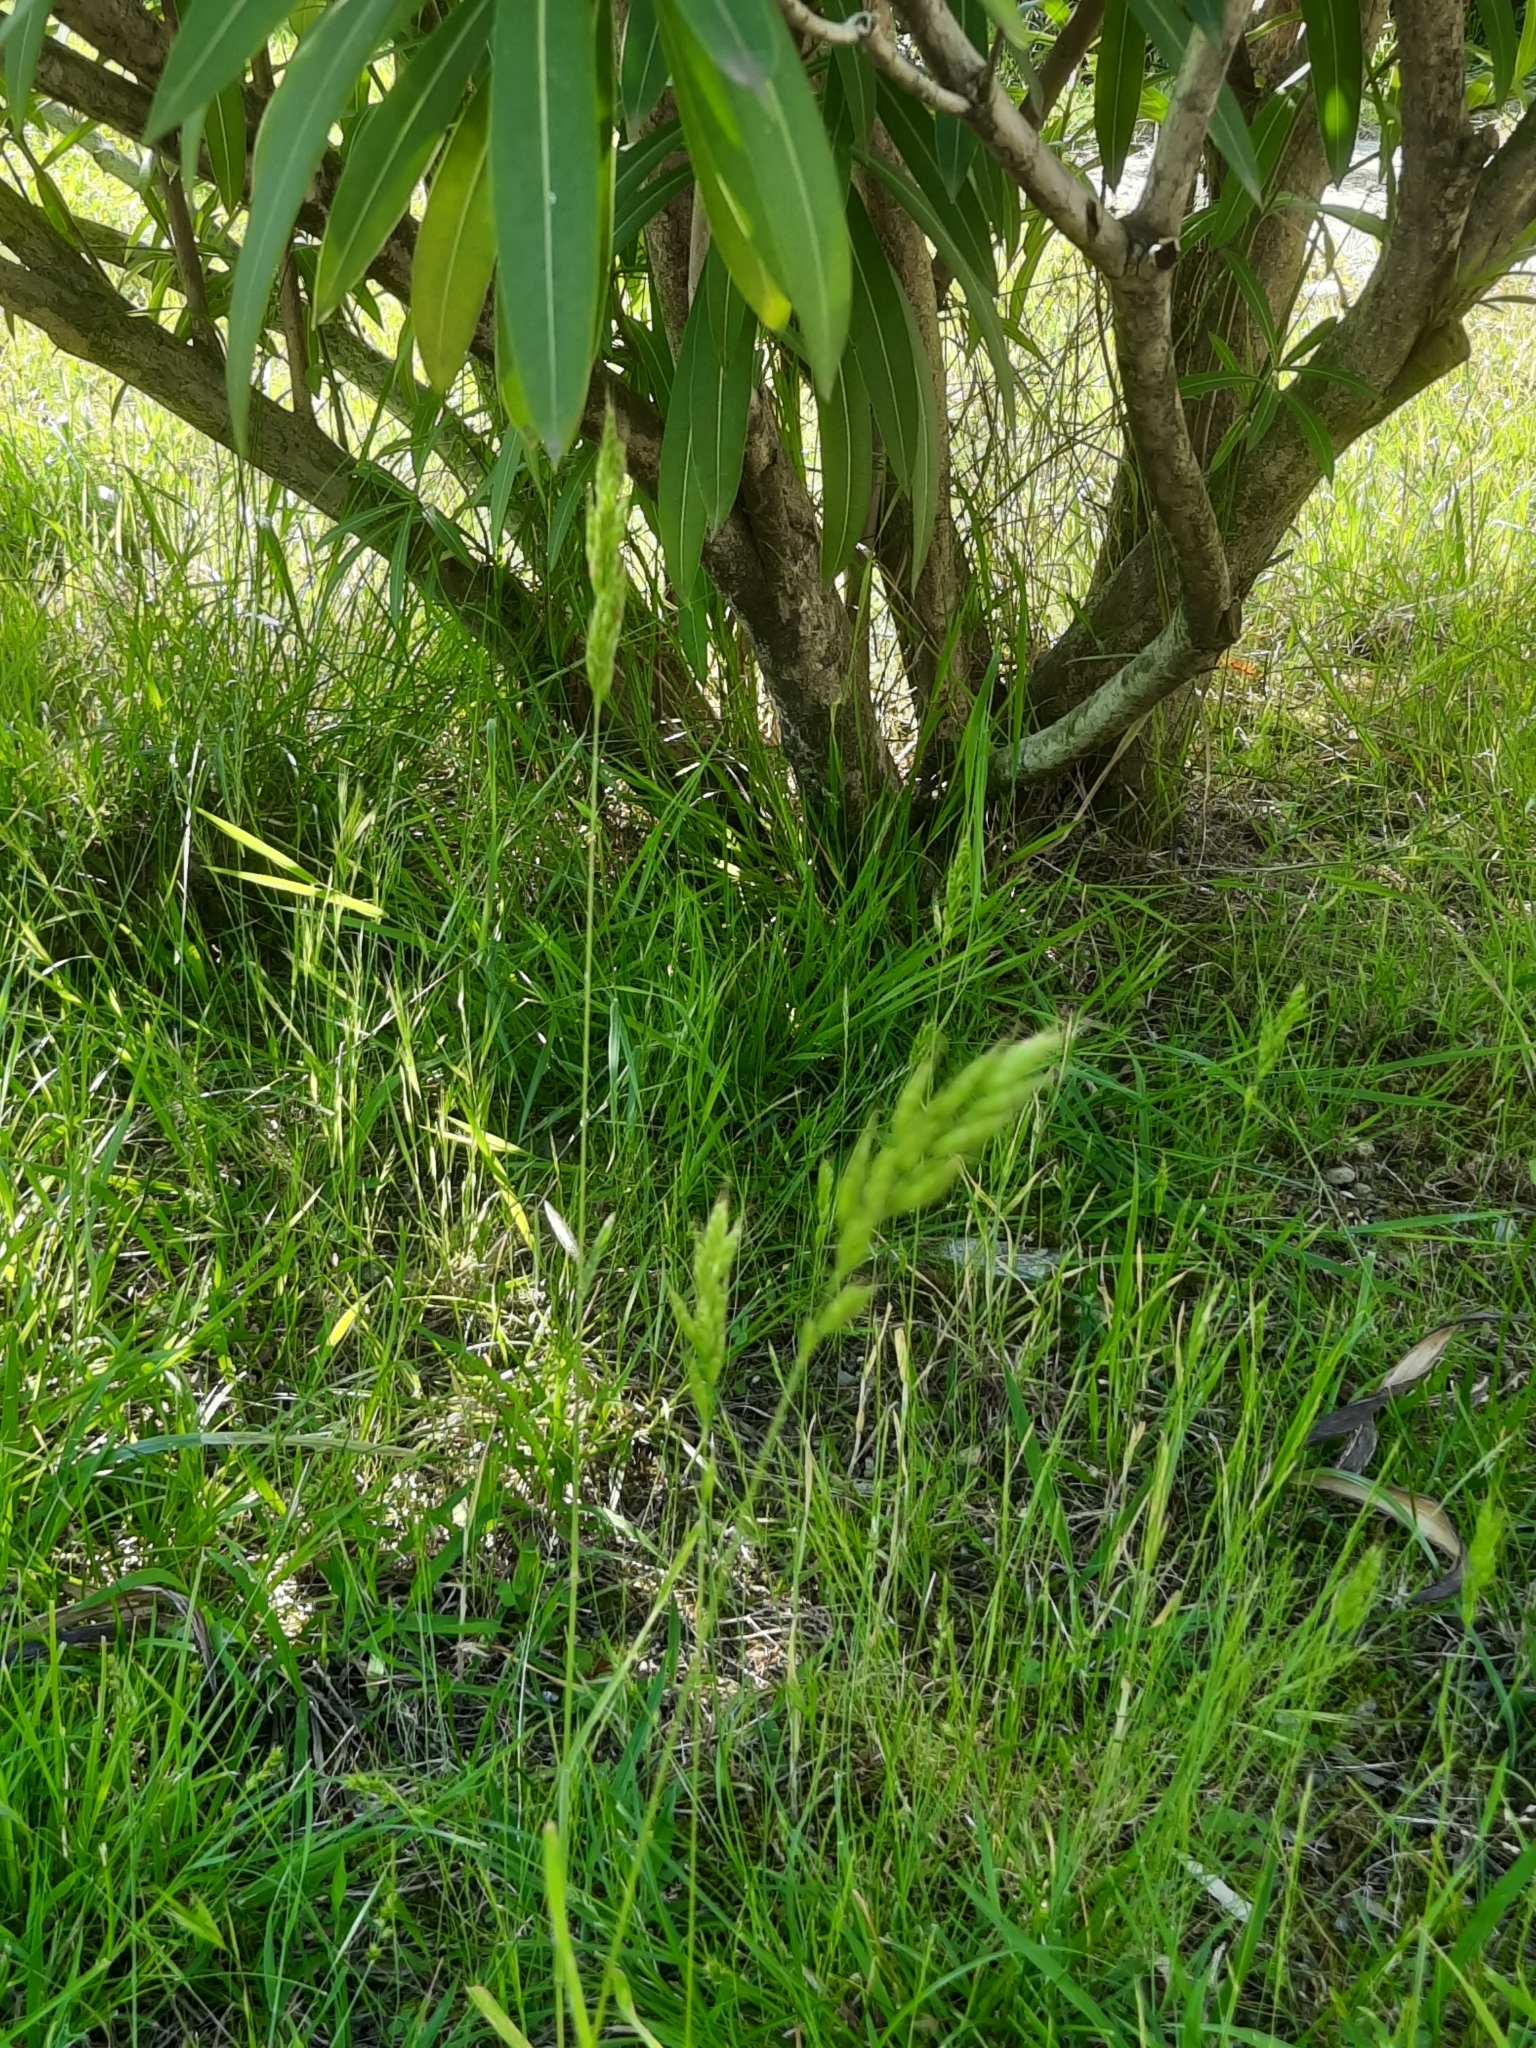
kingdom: Plantae
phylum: Tracheophyta
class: Liliopsida
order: Poales
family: Poaceae
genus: Bromus
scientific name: Bromus hordeaceus
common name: Soft brome
